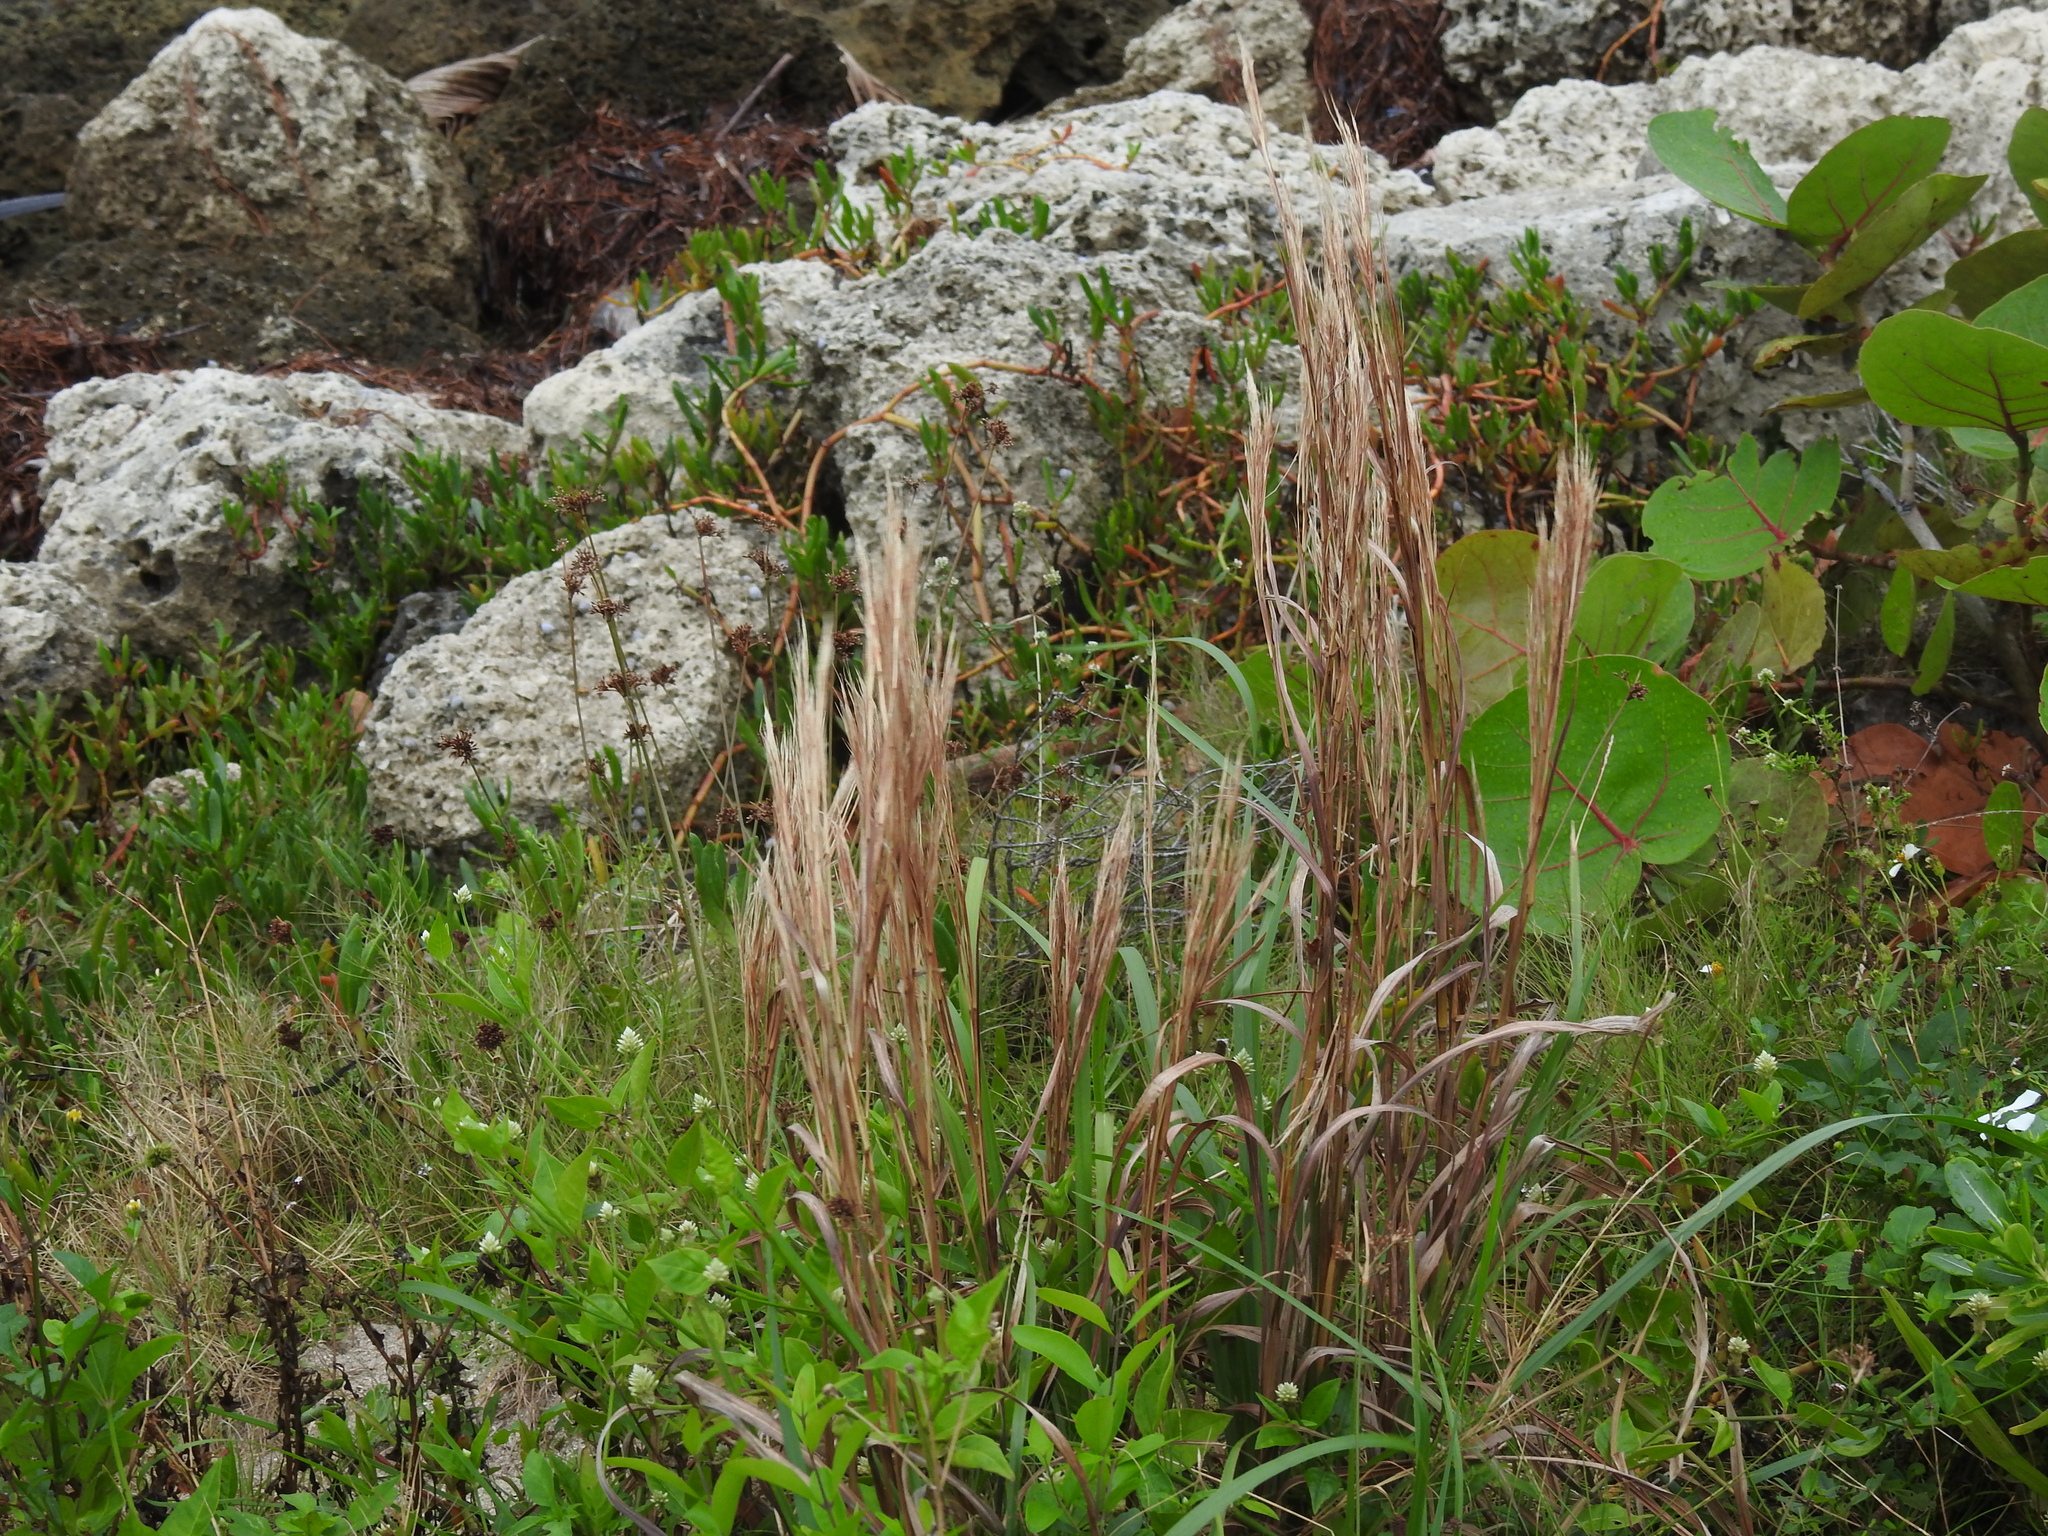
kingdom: Plantae
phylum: Tracheophyta
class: Liliopsida
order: Poales
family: Poaceae
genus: Andropogon
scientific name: Andropogon tenuispatheus
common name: Bushy bluestem
